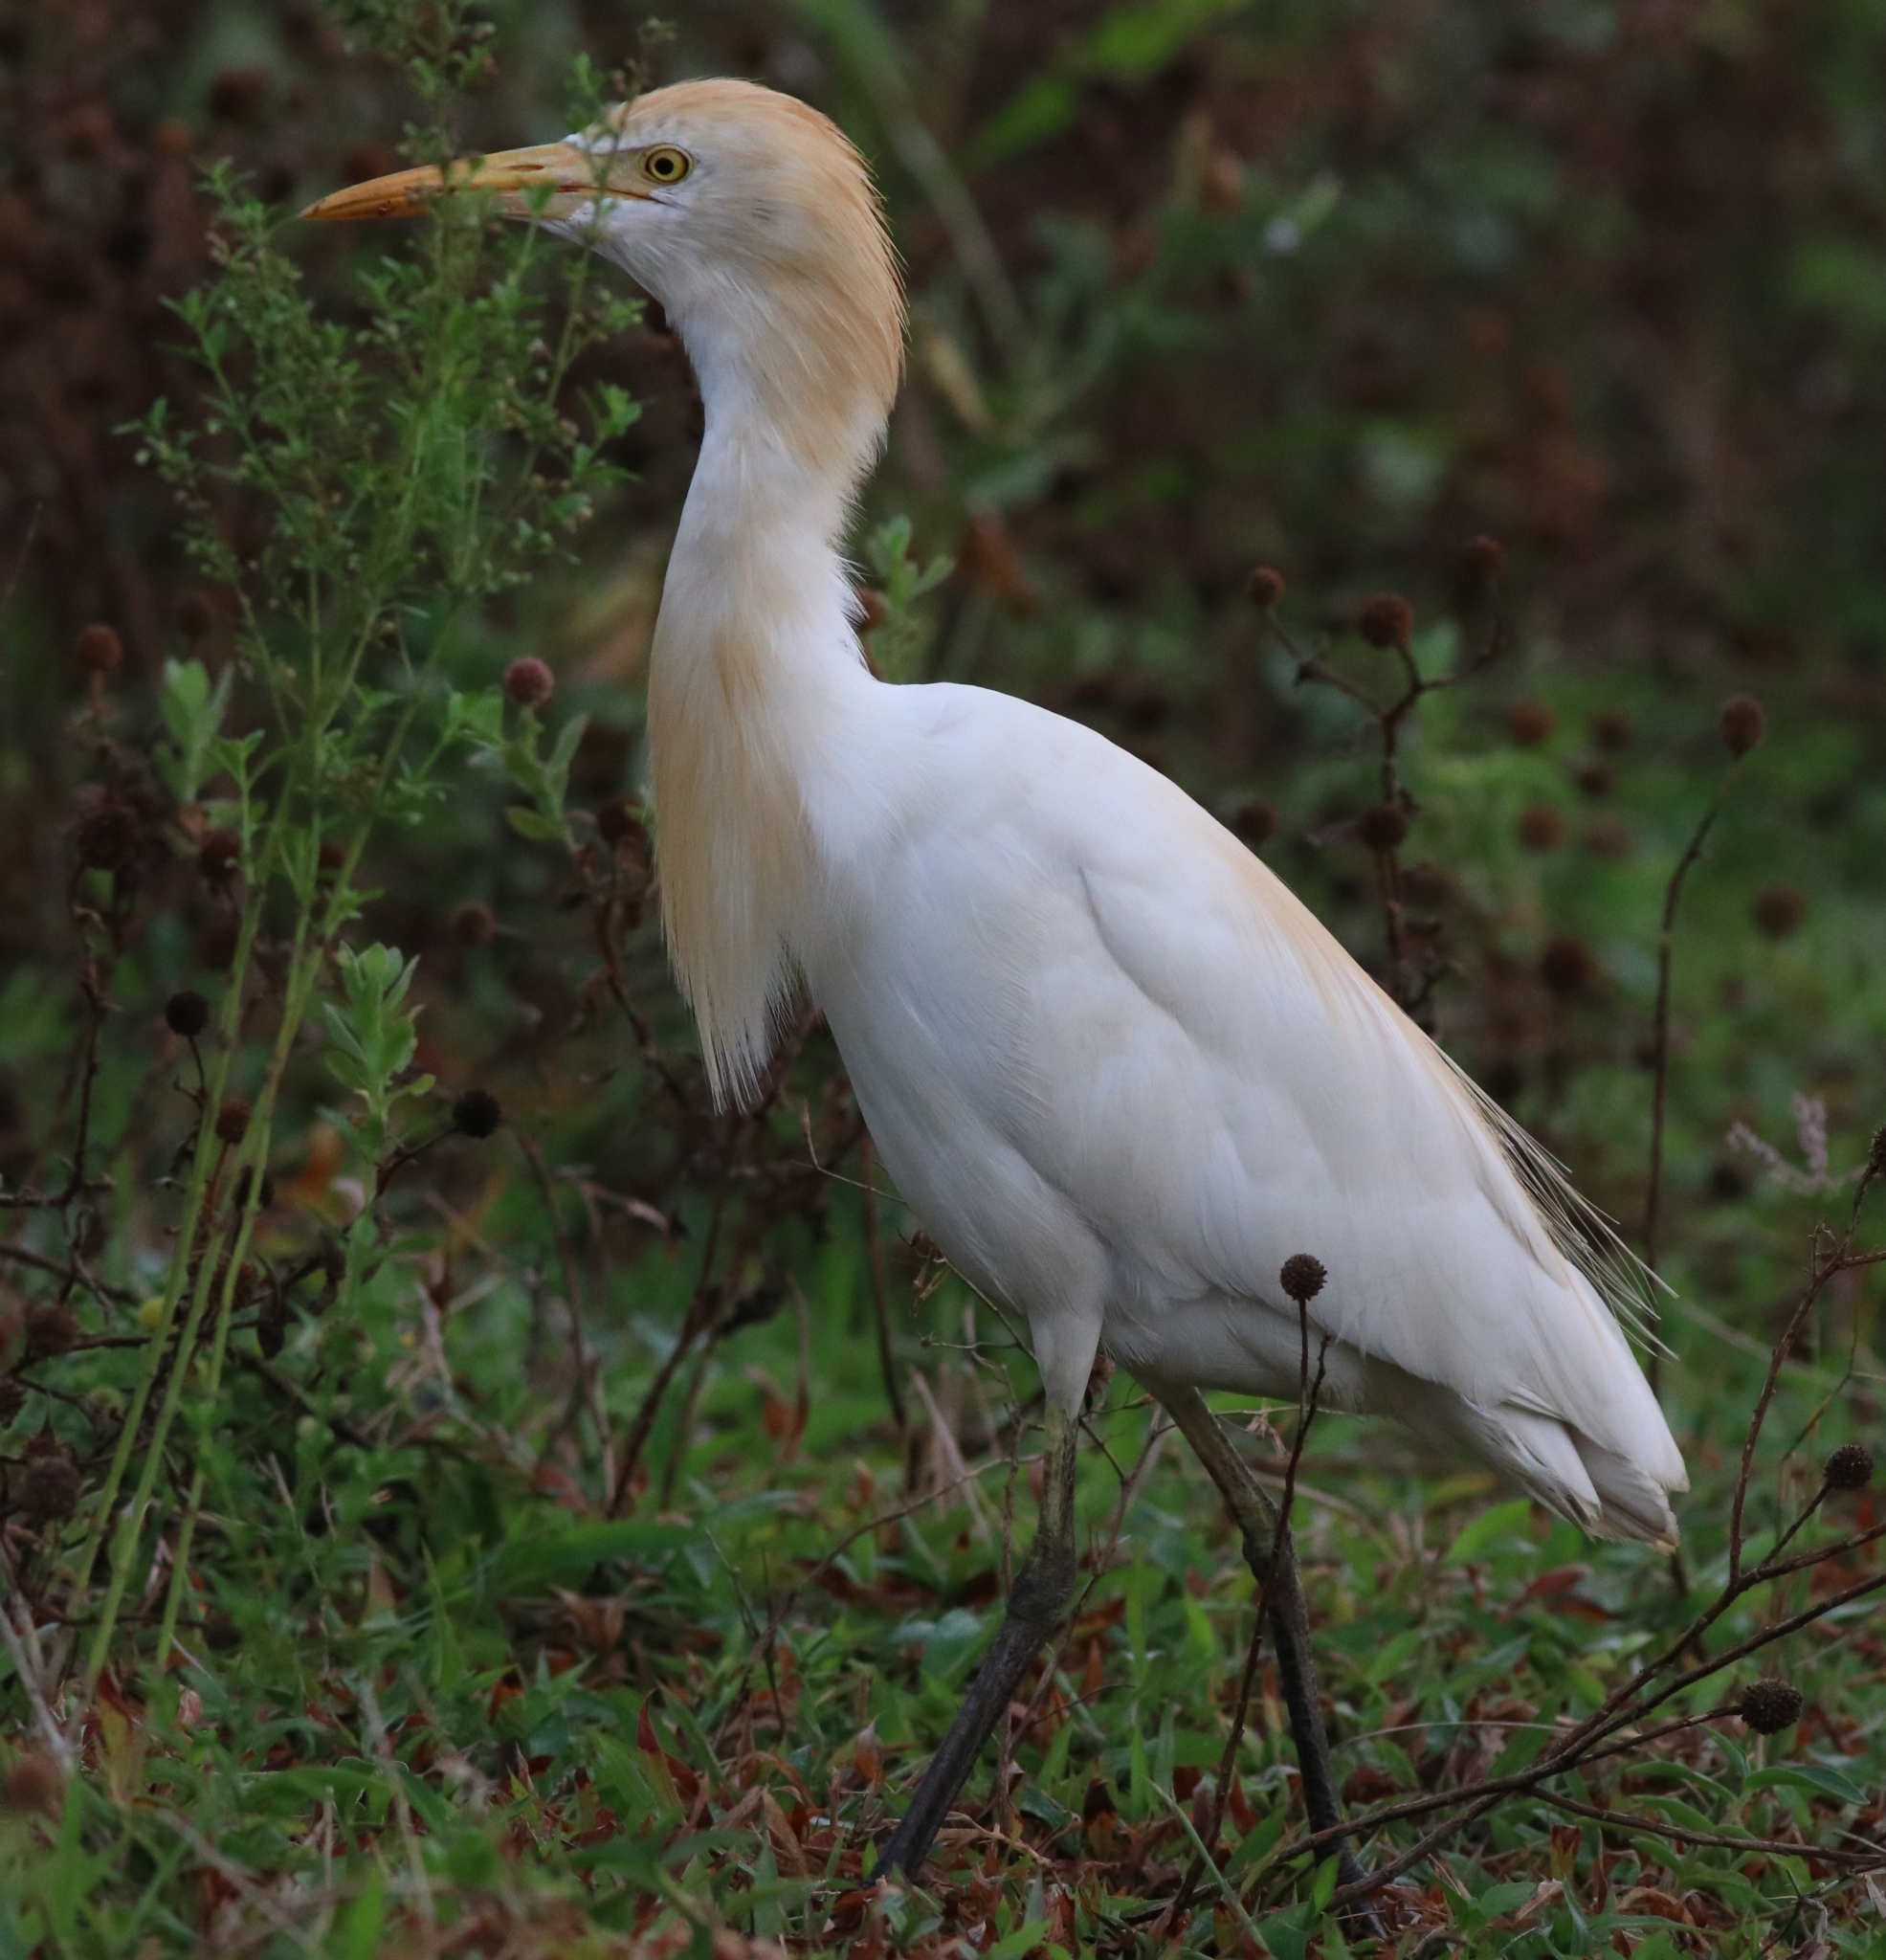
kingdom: Animalia
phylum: Chordata
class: Aves
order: Pelecaniformes
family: Ardeidae
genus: Bubulcus
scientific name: Bubulcus coromandus
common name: Eastern cattle egret
